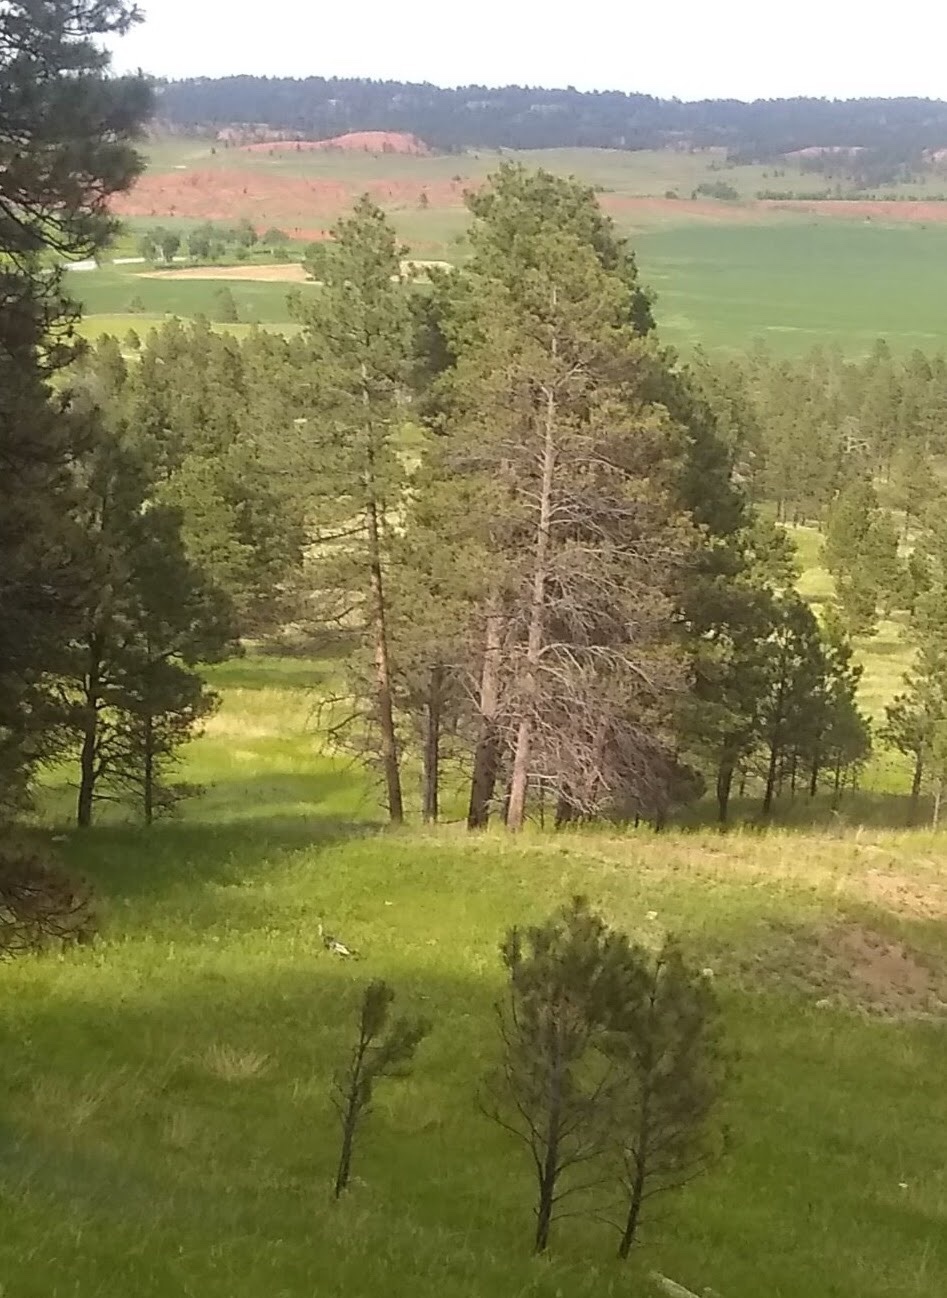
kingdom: Animalia
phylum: Chordata
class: Aves
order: Galliformes
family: Phasianidae
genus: Meleagris
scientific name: Meleagris gallopavo
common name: Wild turkey
